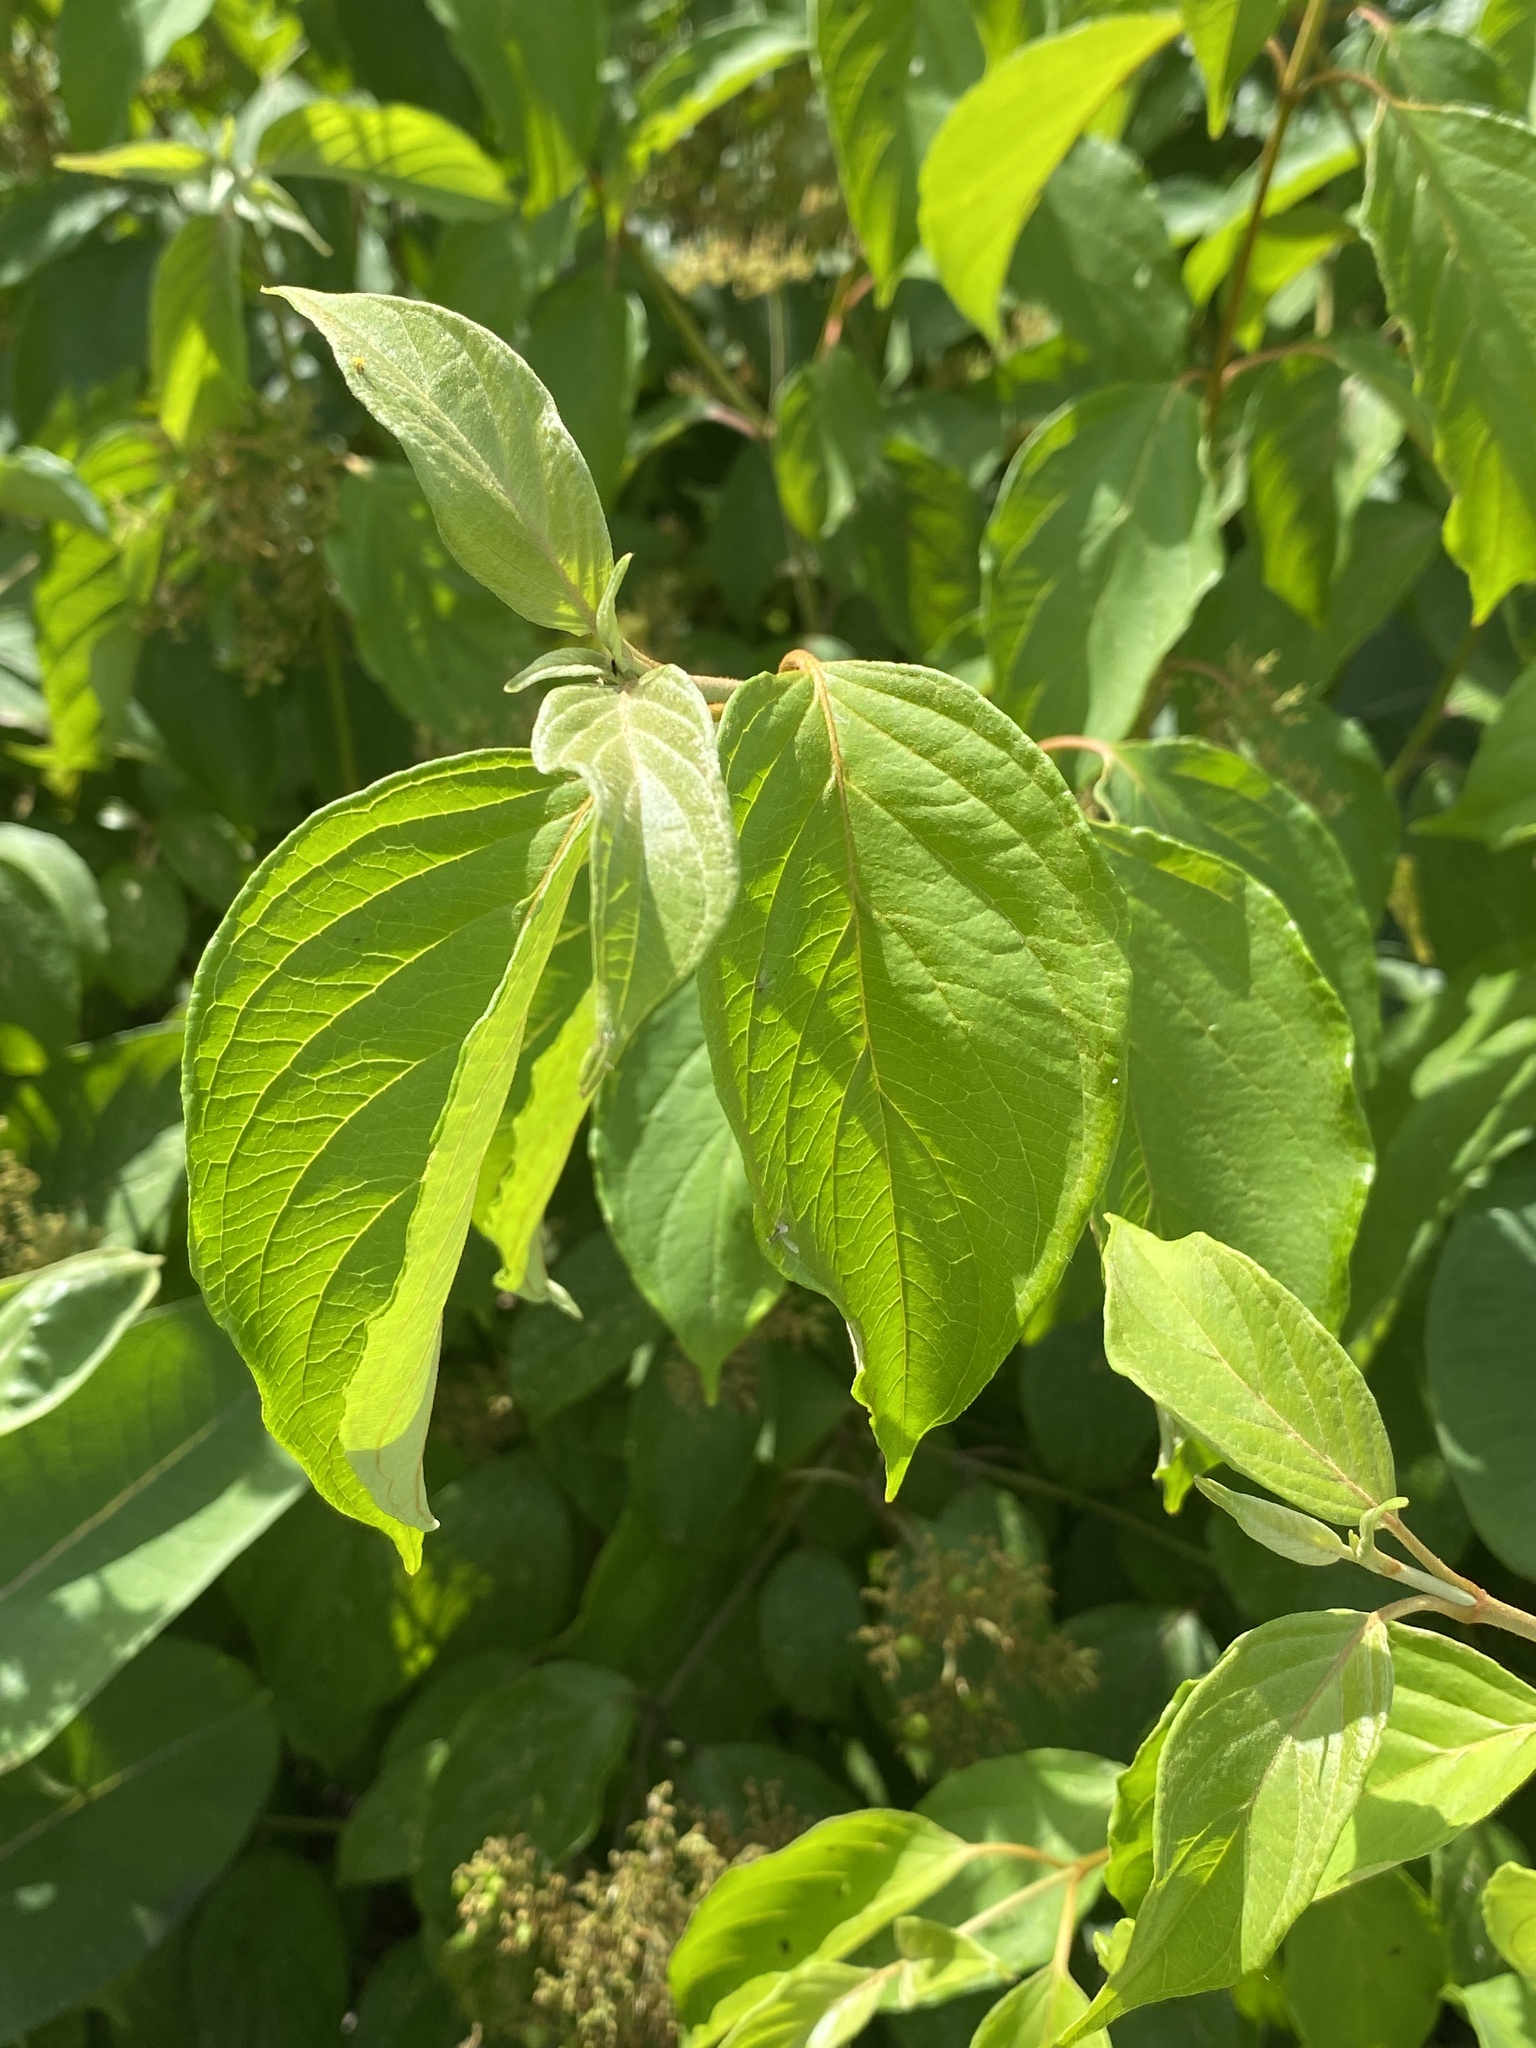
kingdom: Plantae
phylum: Tracheophyta
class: Magnoliopsida
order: Cornales
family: Cornaceae
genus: Cornus
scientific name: Cornus amomum
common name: Silky dogwood
